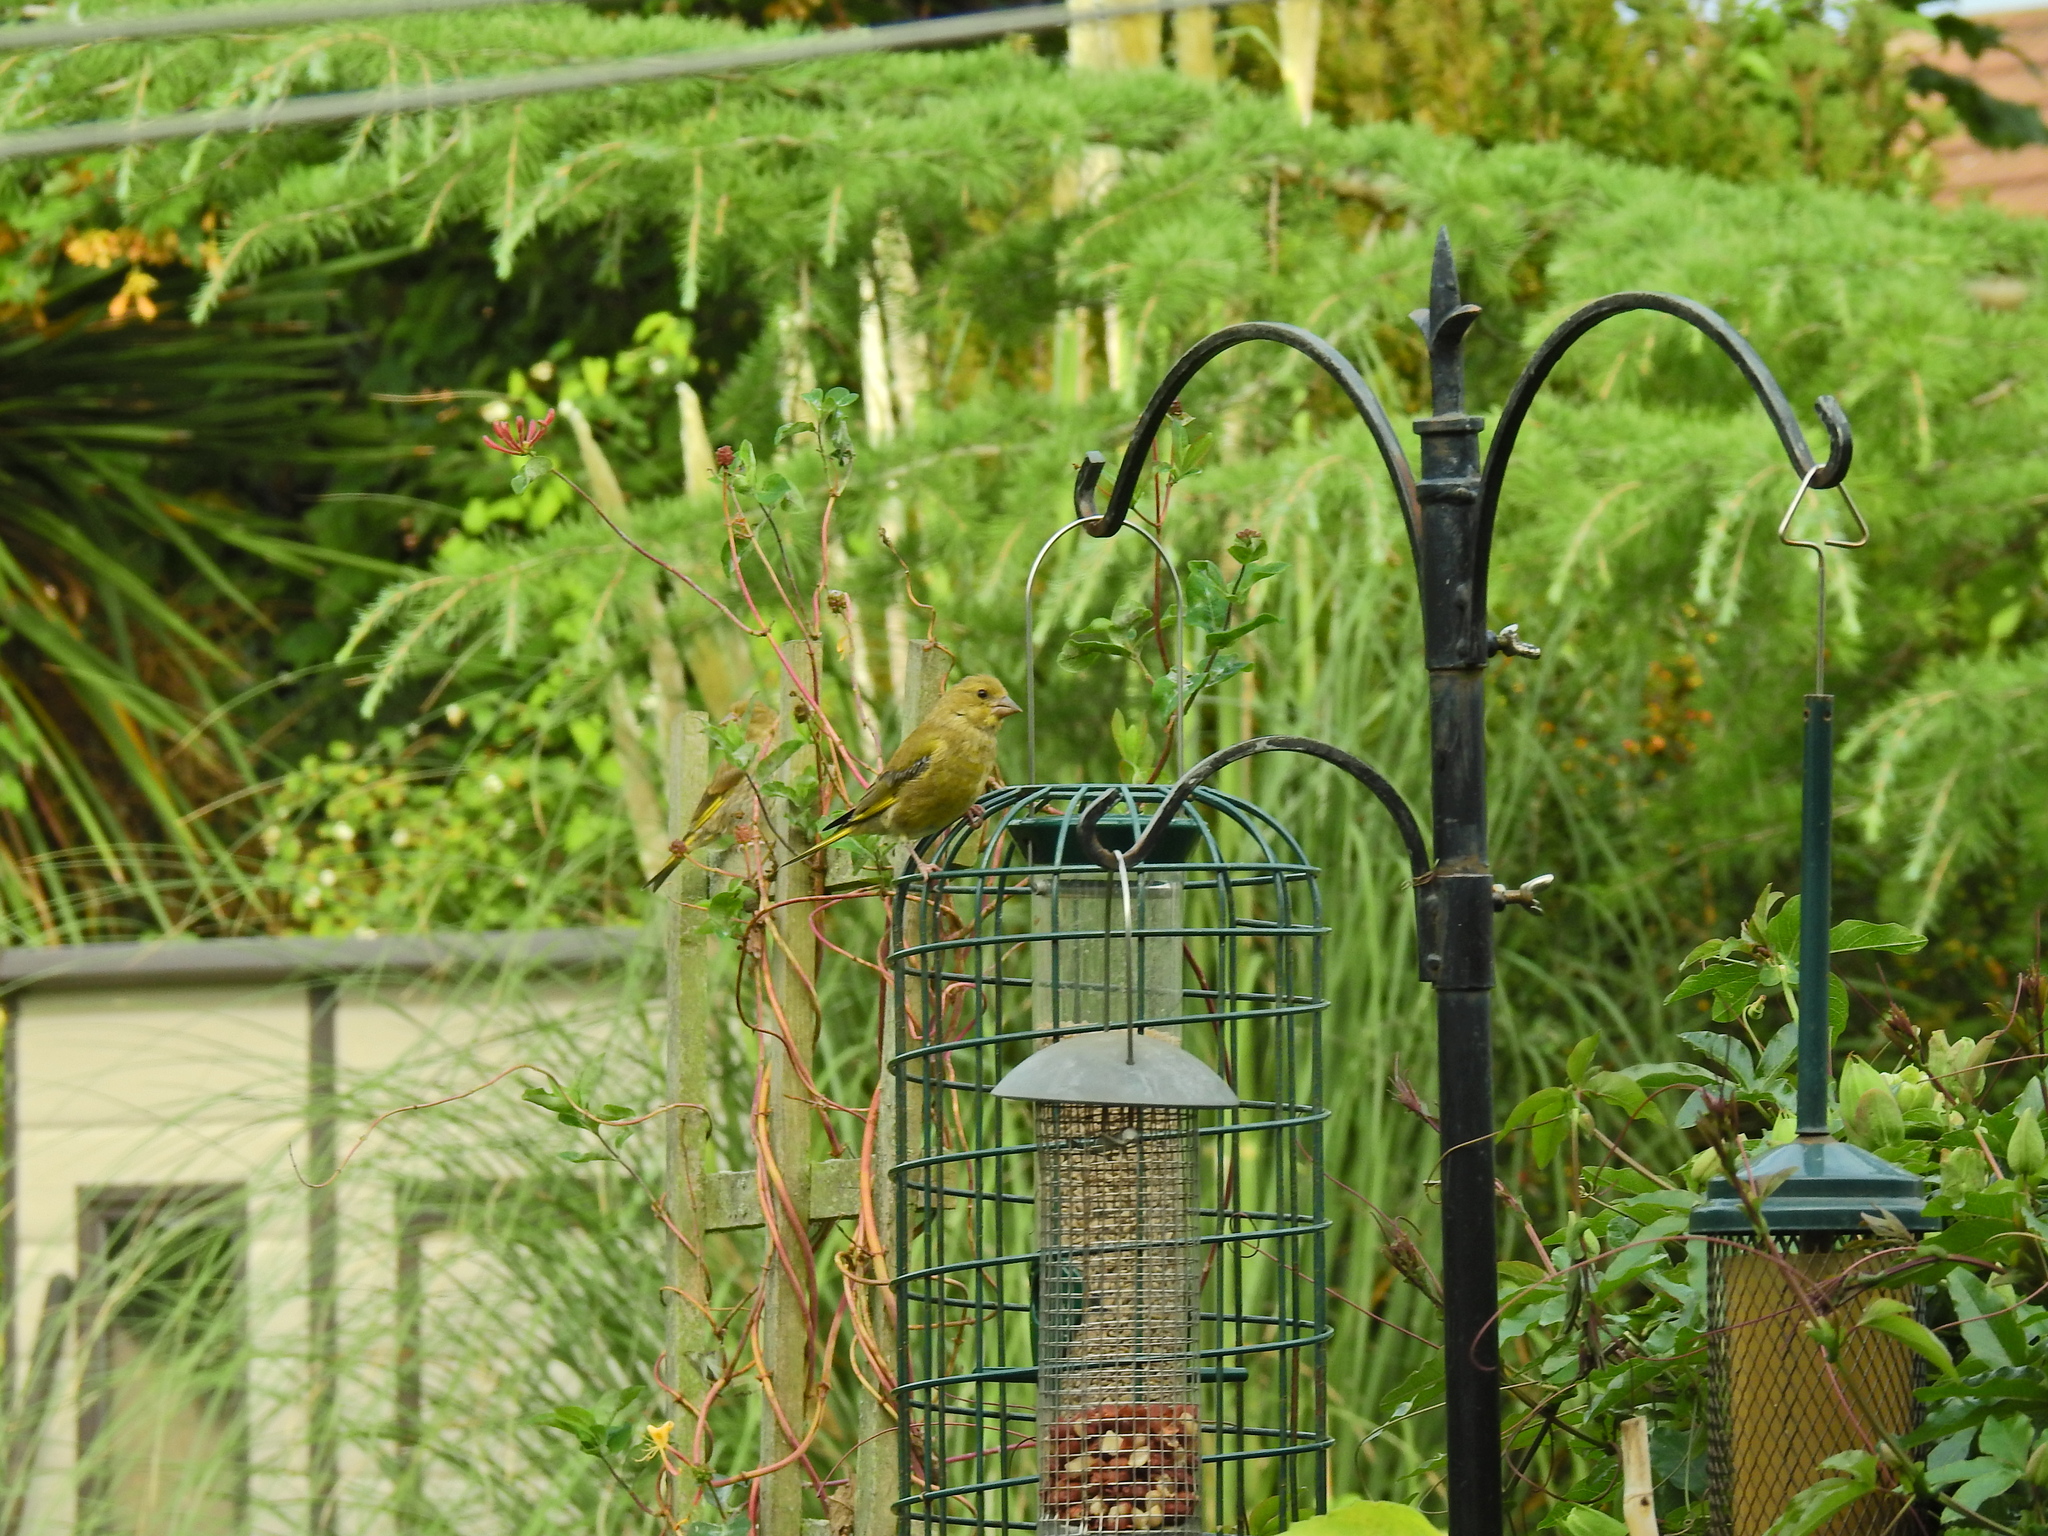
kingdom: Plantae
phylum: Tracheophyta
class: Liliopsida
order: Poales
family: Poaceae
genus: Chloris
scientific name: Chloris chloris
